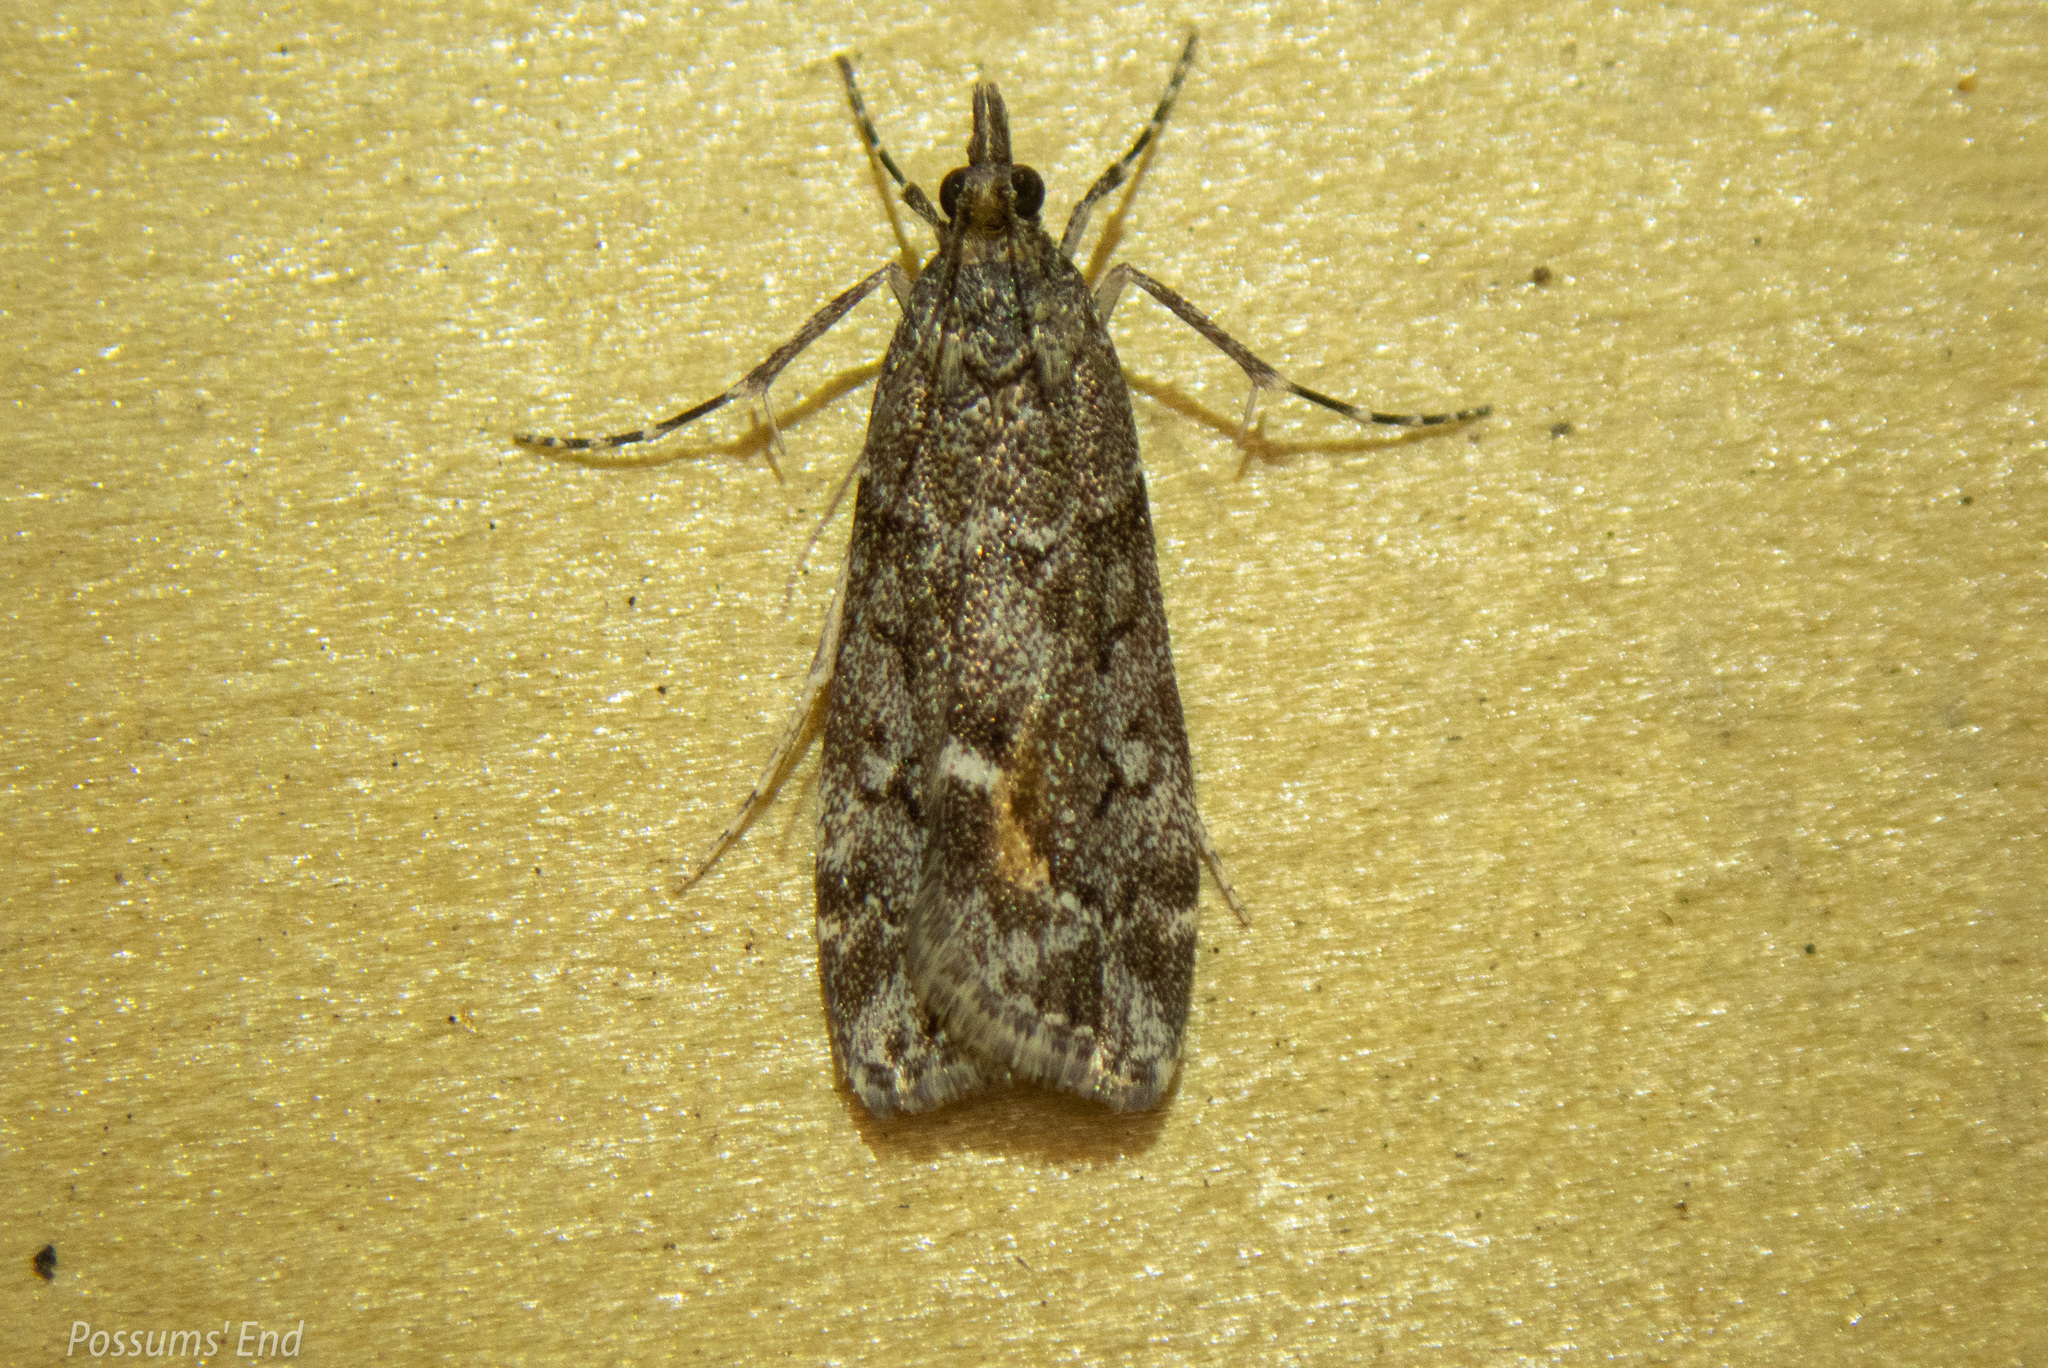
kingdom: Animalia
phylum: Arthropoda
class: Insecta
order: Lepidoptera
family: Crambidae
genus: Eudonia
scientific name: Eudonia submarginalis
